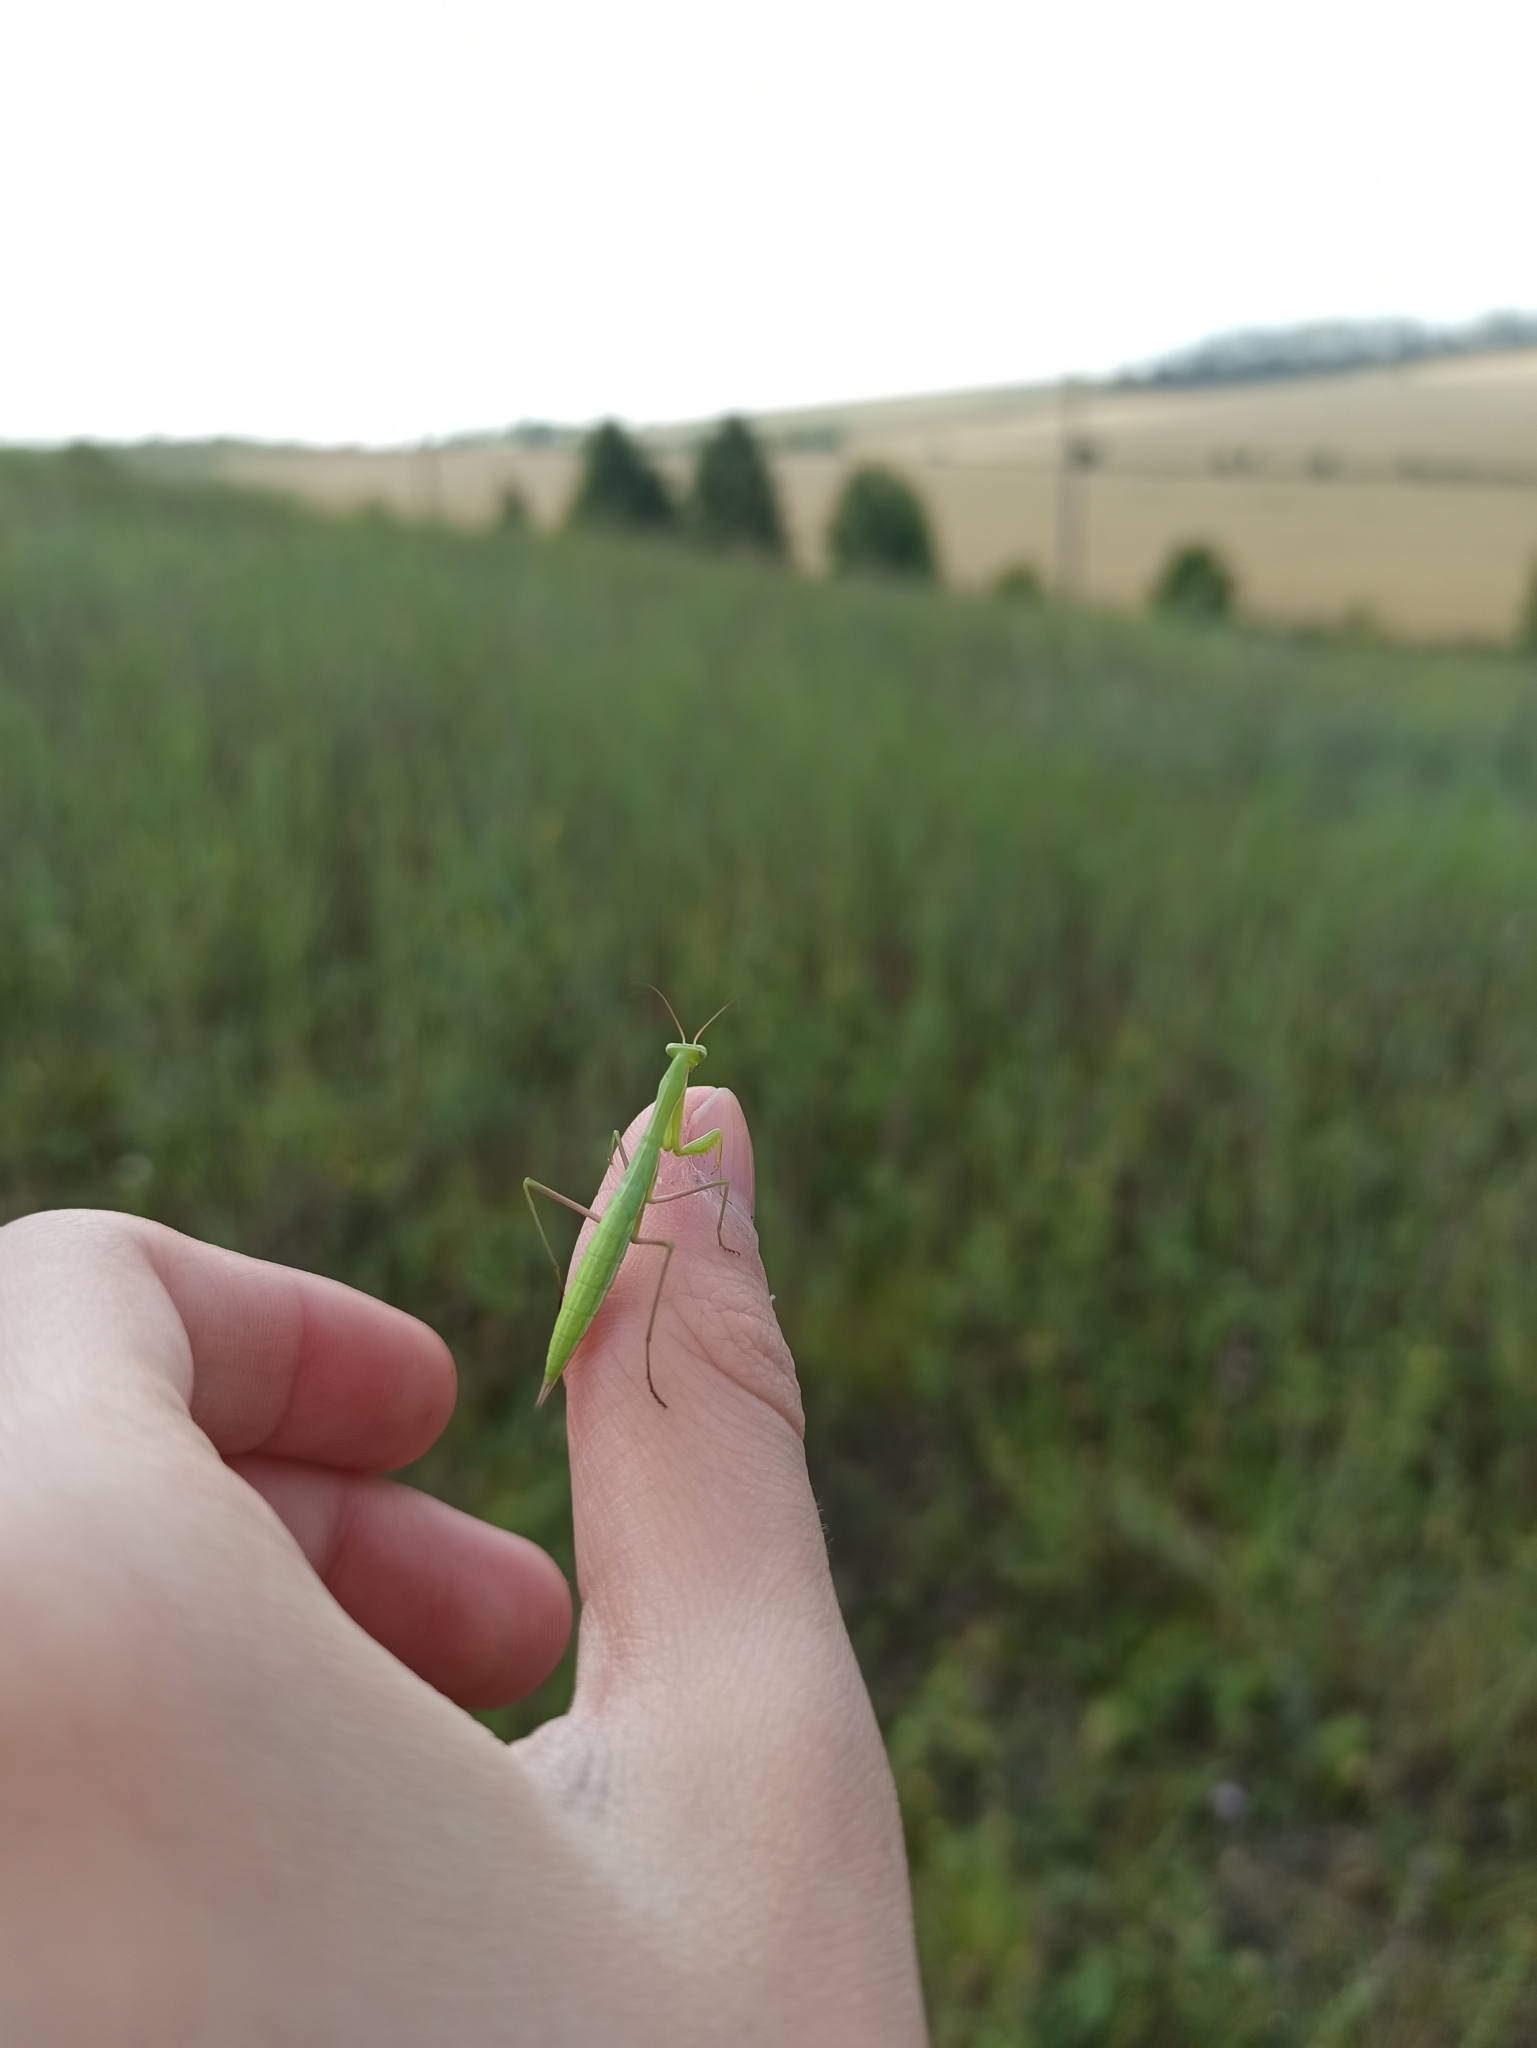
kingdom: Animalia
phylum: Arthropoda
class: Insecta
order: Mantodea
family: Mantidae
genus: Mantis
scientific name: Mantis religiosa
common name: Praying mantis
